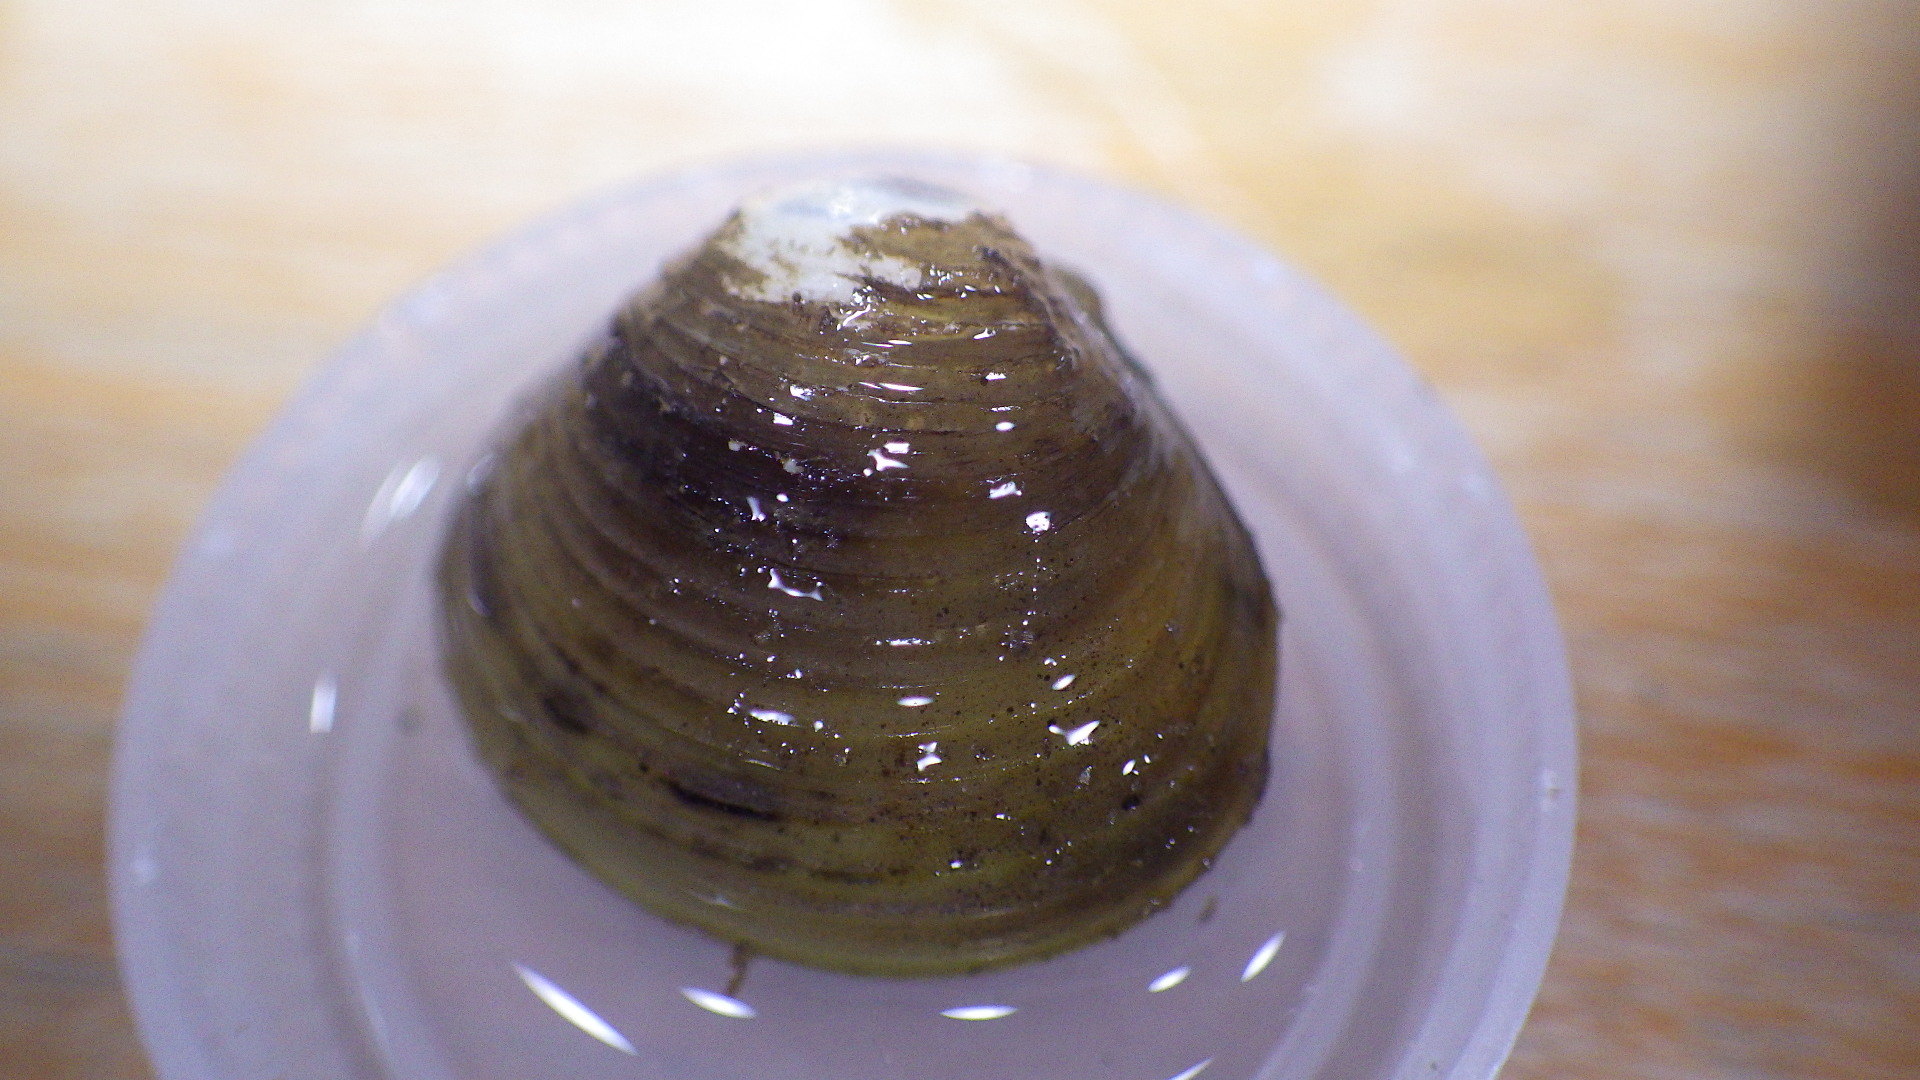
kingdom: Animalia
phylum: Mollusca
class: Bivalvia
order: Venerida
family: Cyrenidae
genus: Corbicula
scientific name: Corbicula fluminea
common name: Asian clam
